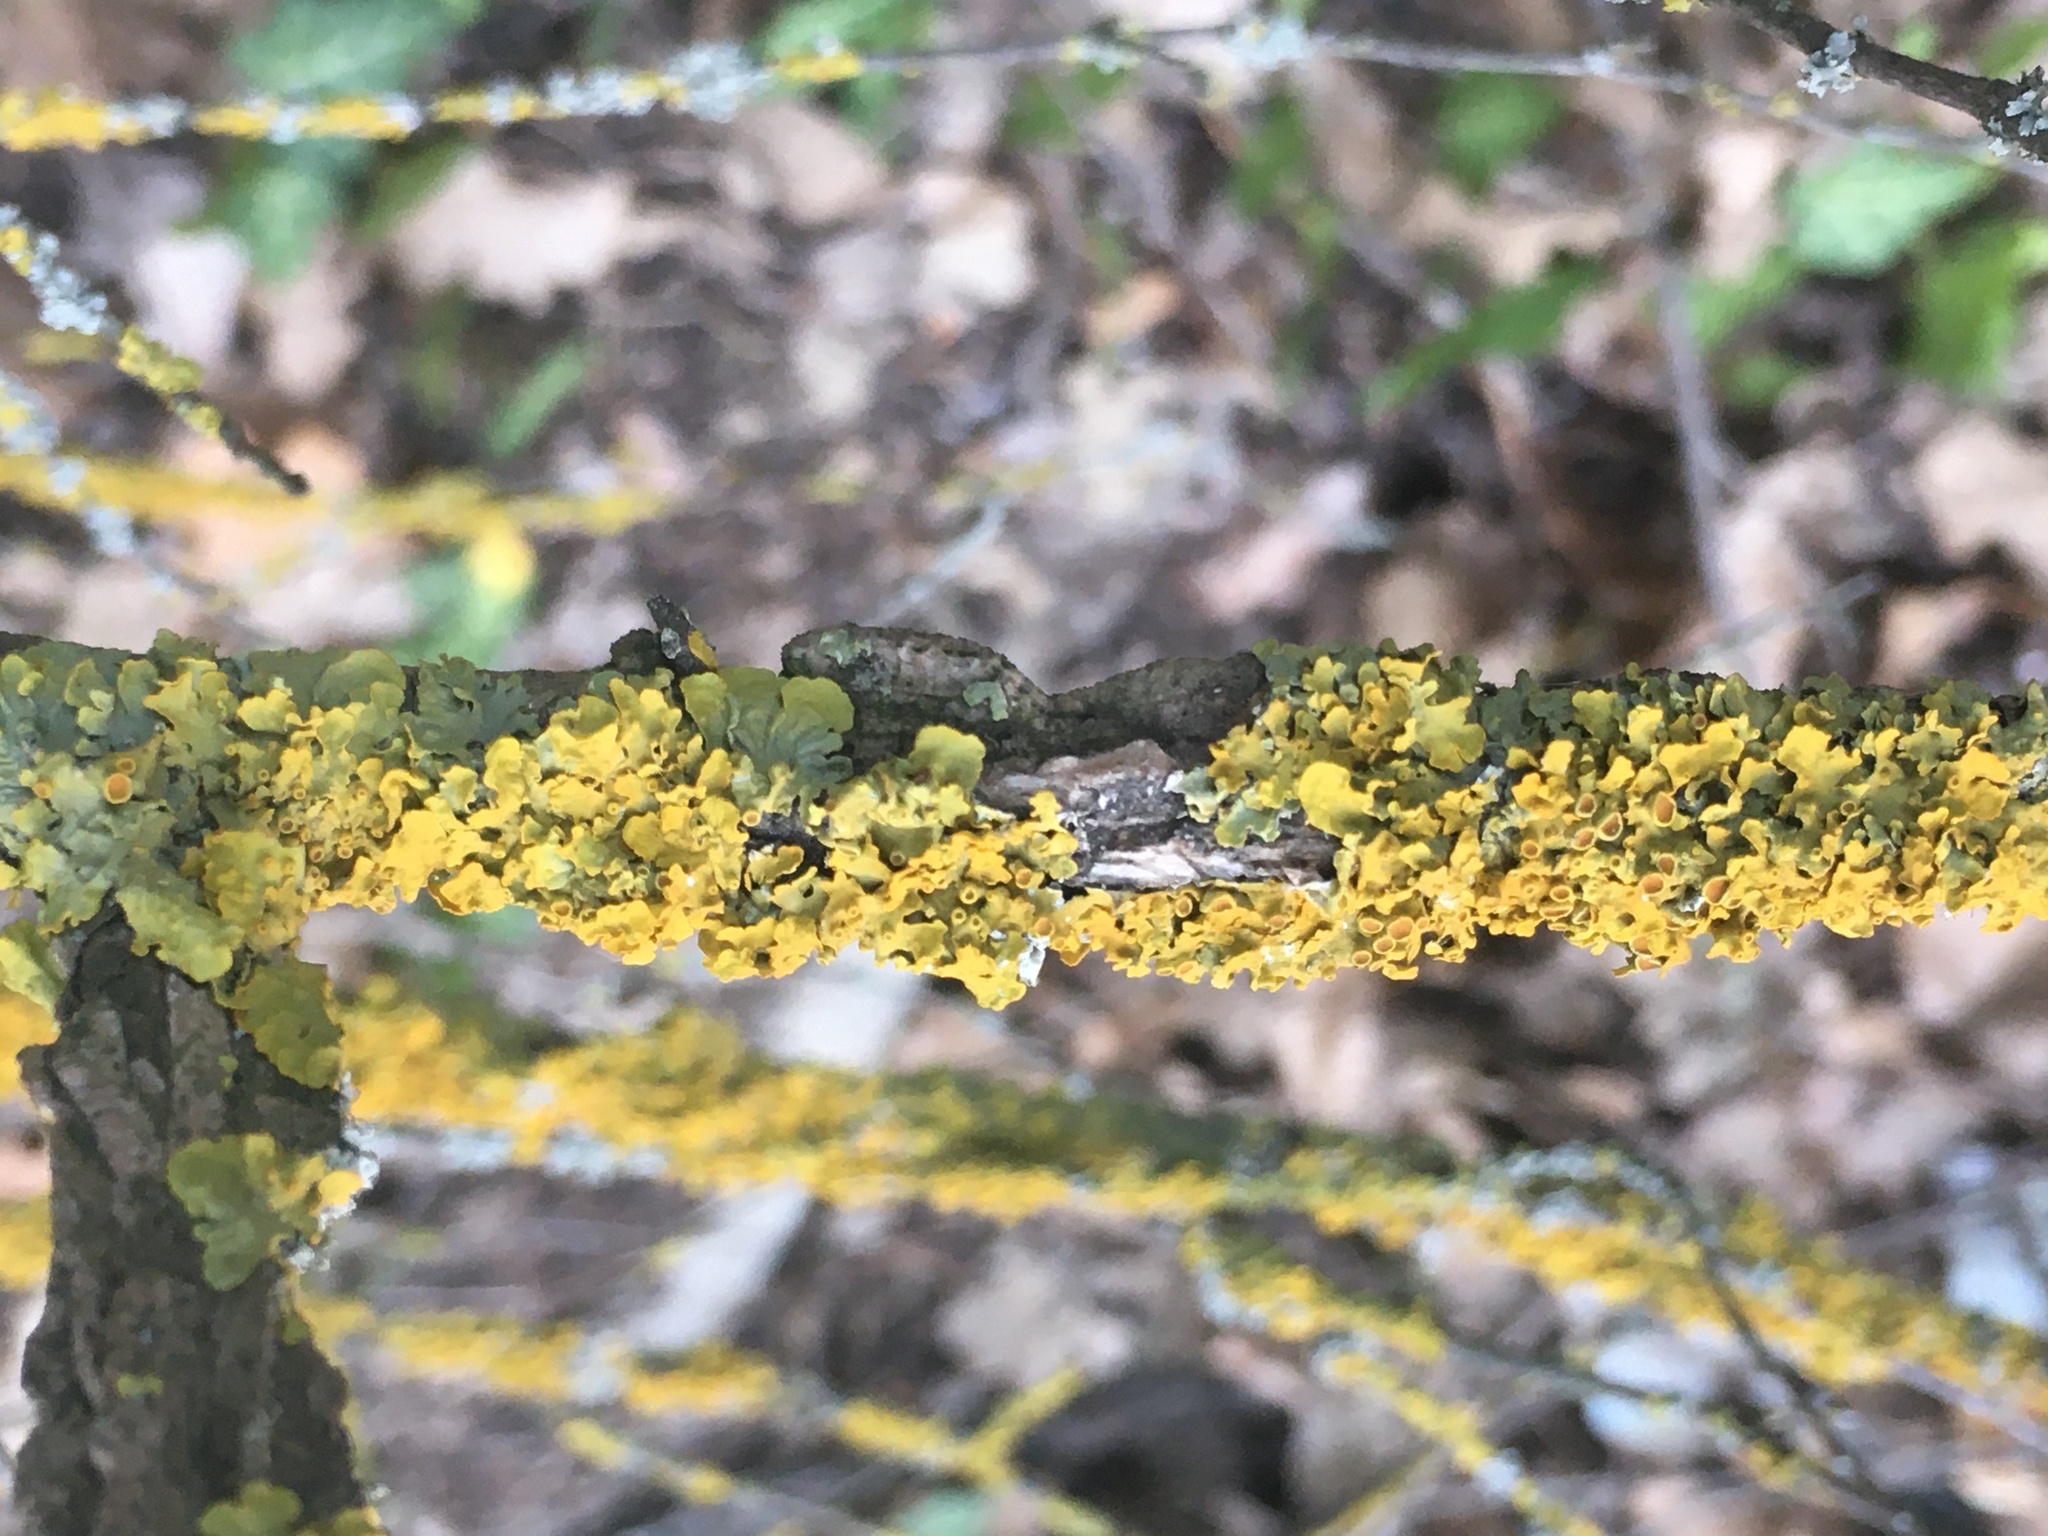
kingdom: Fungi
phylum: Ascomycota
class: Lecanoromycetes
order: Teloschistales
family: Teloschistaceae
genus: Xanthoria
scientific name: Xanthoria parietina
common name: Common orange lichen
